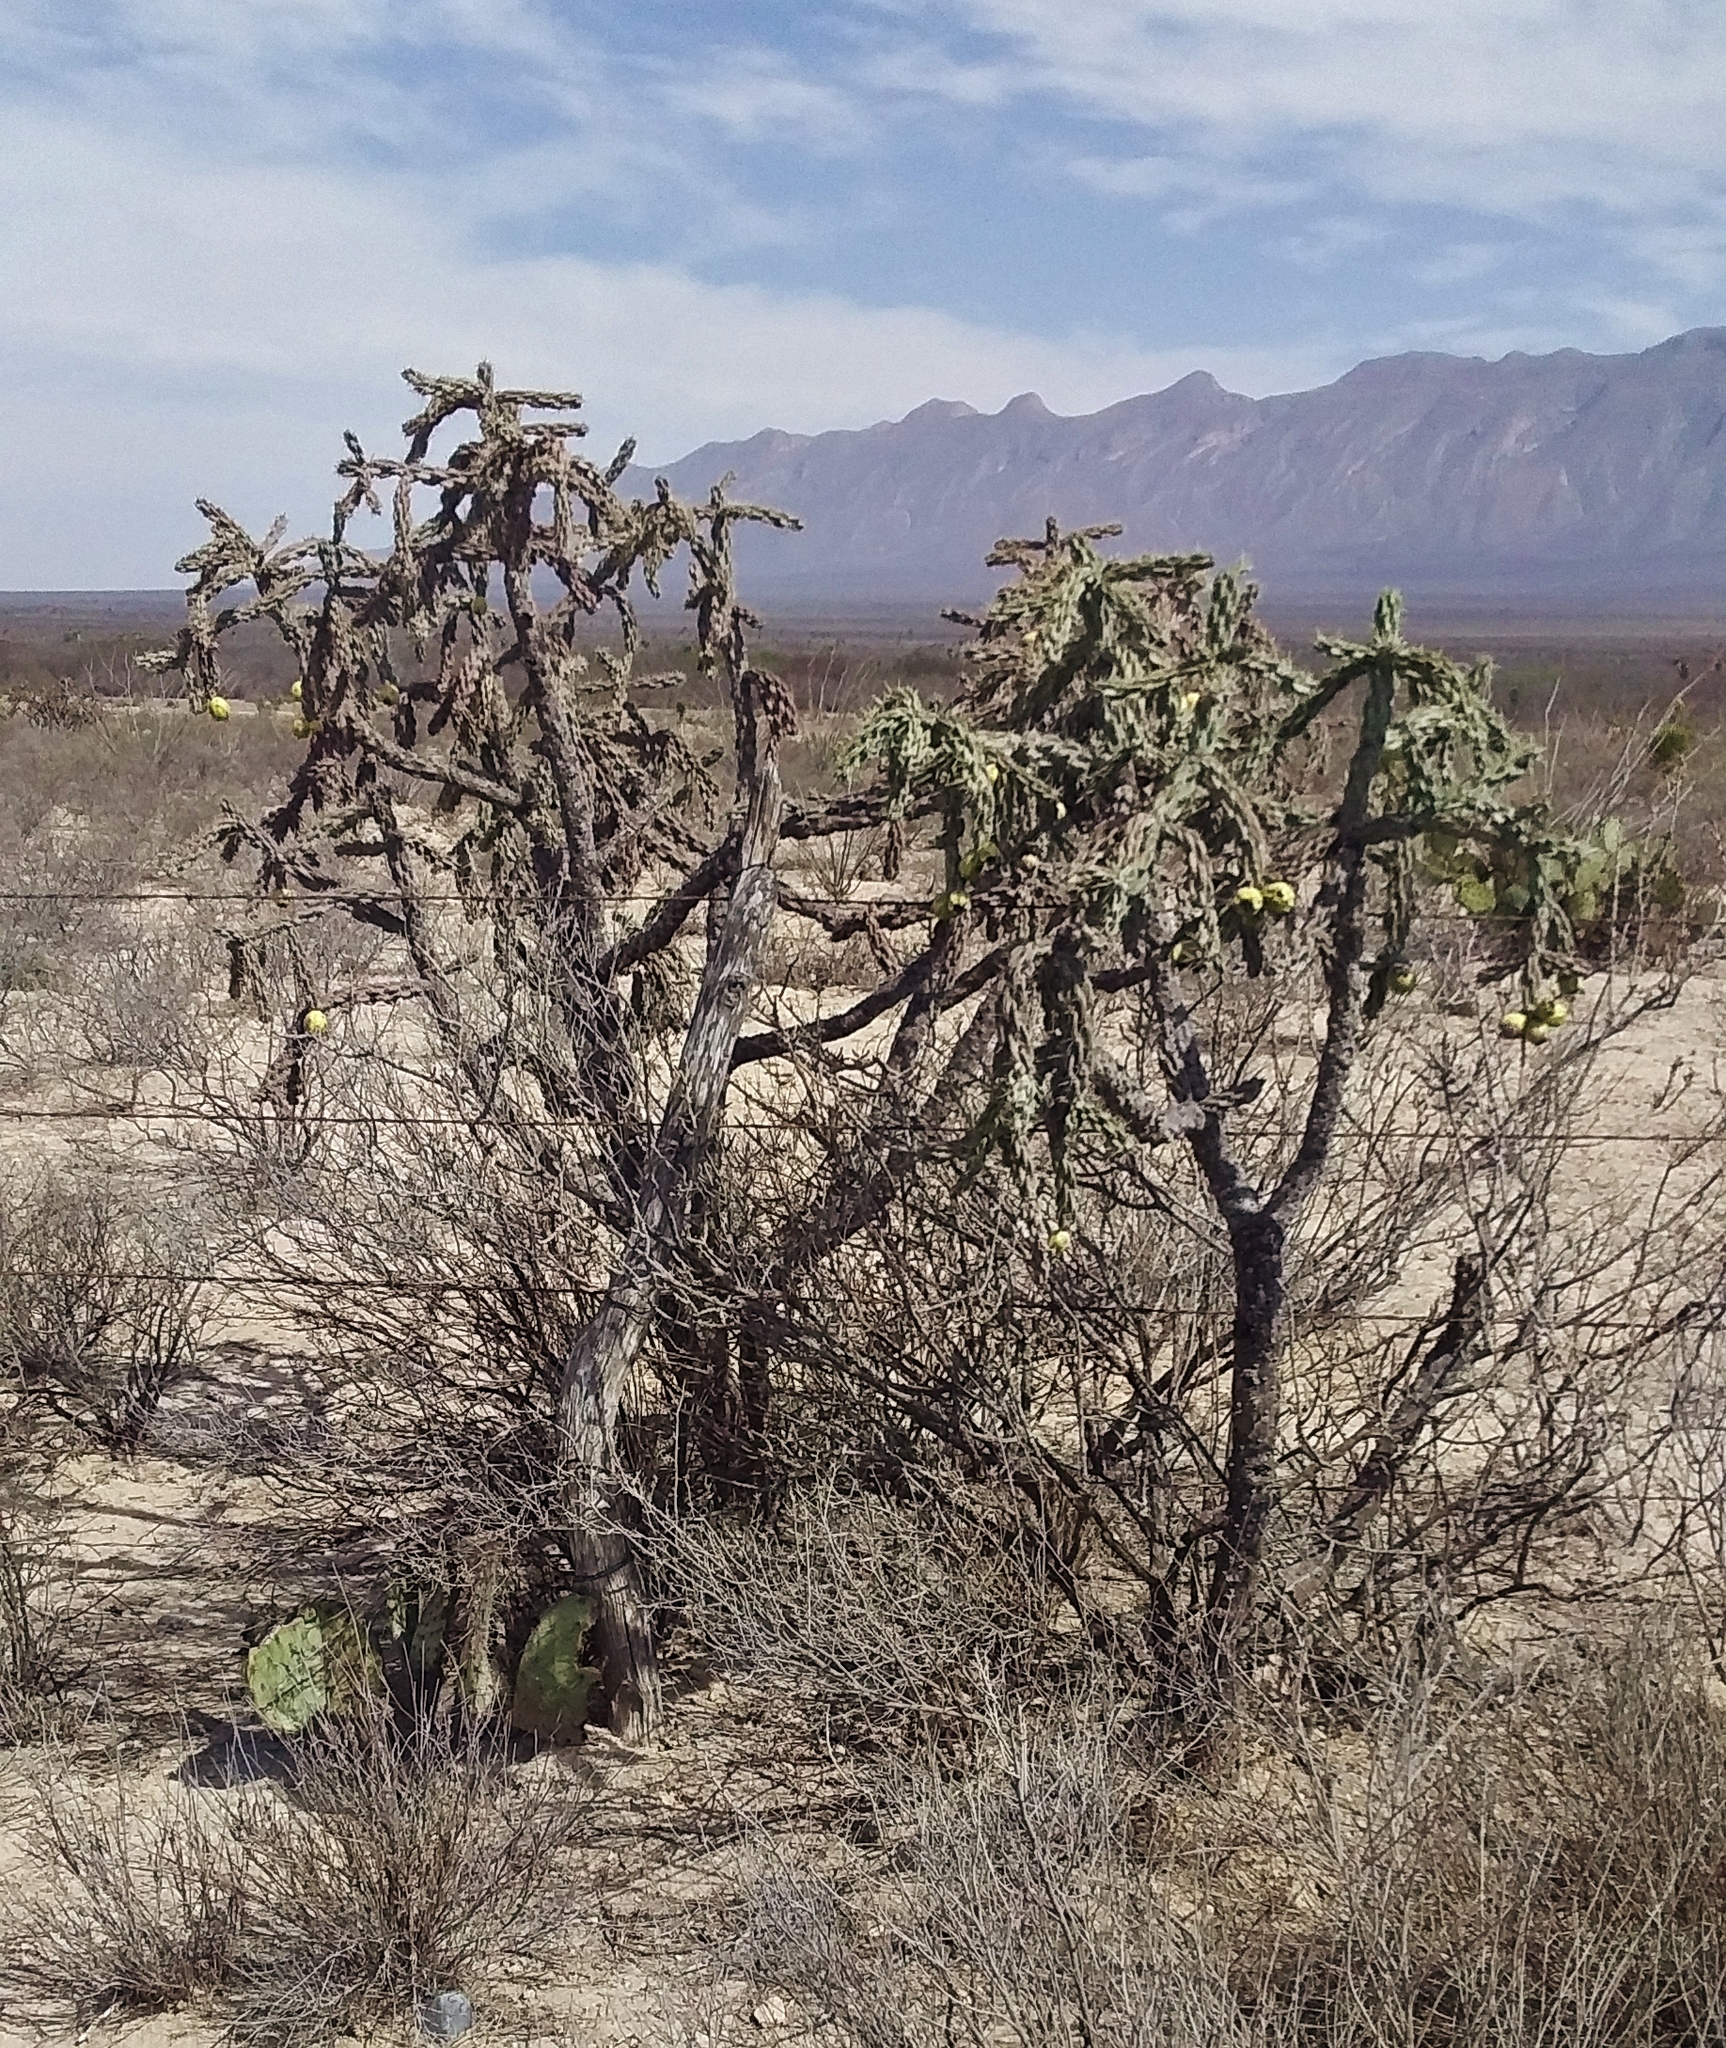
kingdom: Plantae
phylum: Tracheophyta
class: Magnoliopsida
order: Caryophyllales
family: Cactaceae
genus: Cylindropuntia
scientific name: Cylindropuntia imbricata
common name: Candelabrum cactus
